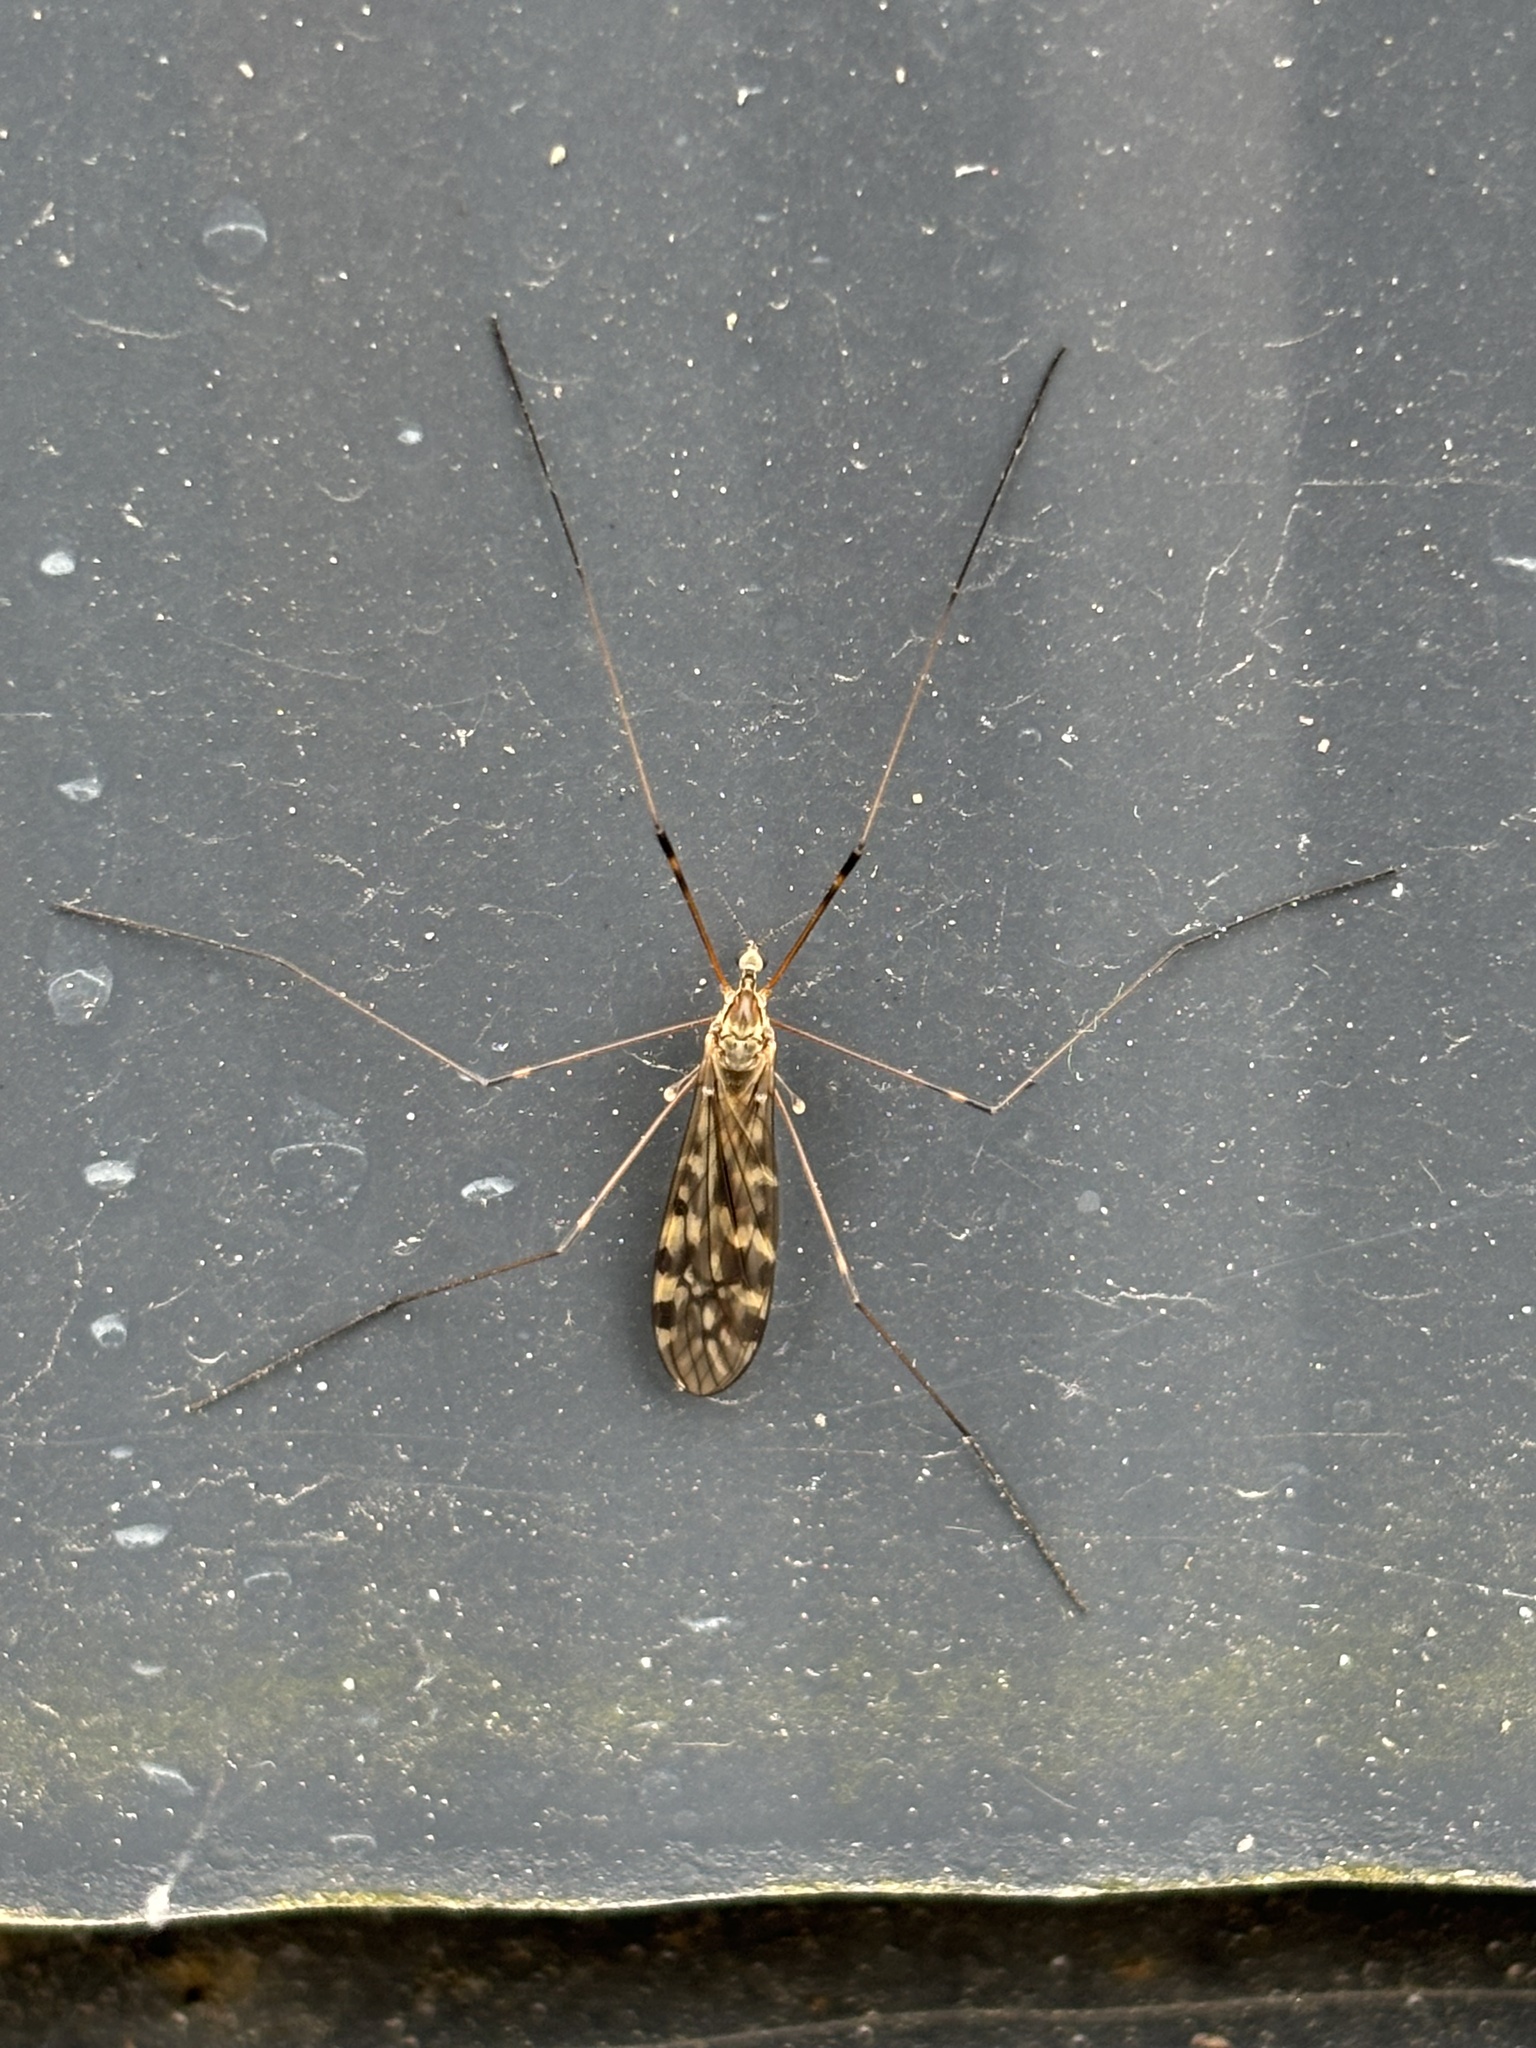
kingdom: Animalia
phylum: Arthropoda
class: Insecta
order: Diptera
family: Limoniidae
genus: Limonia
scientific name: Limonia hercegovinae
